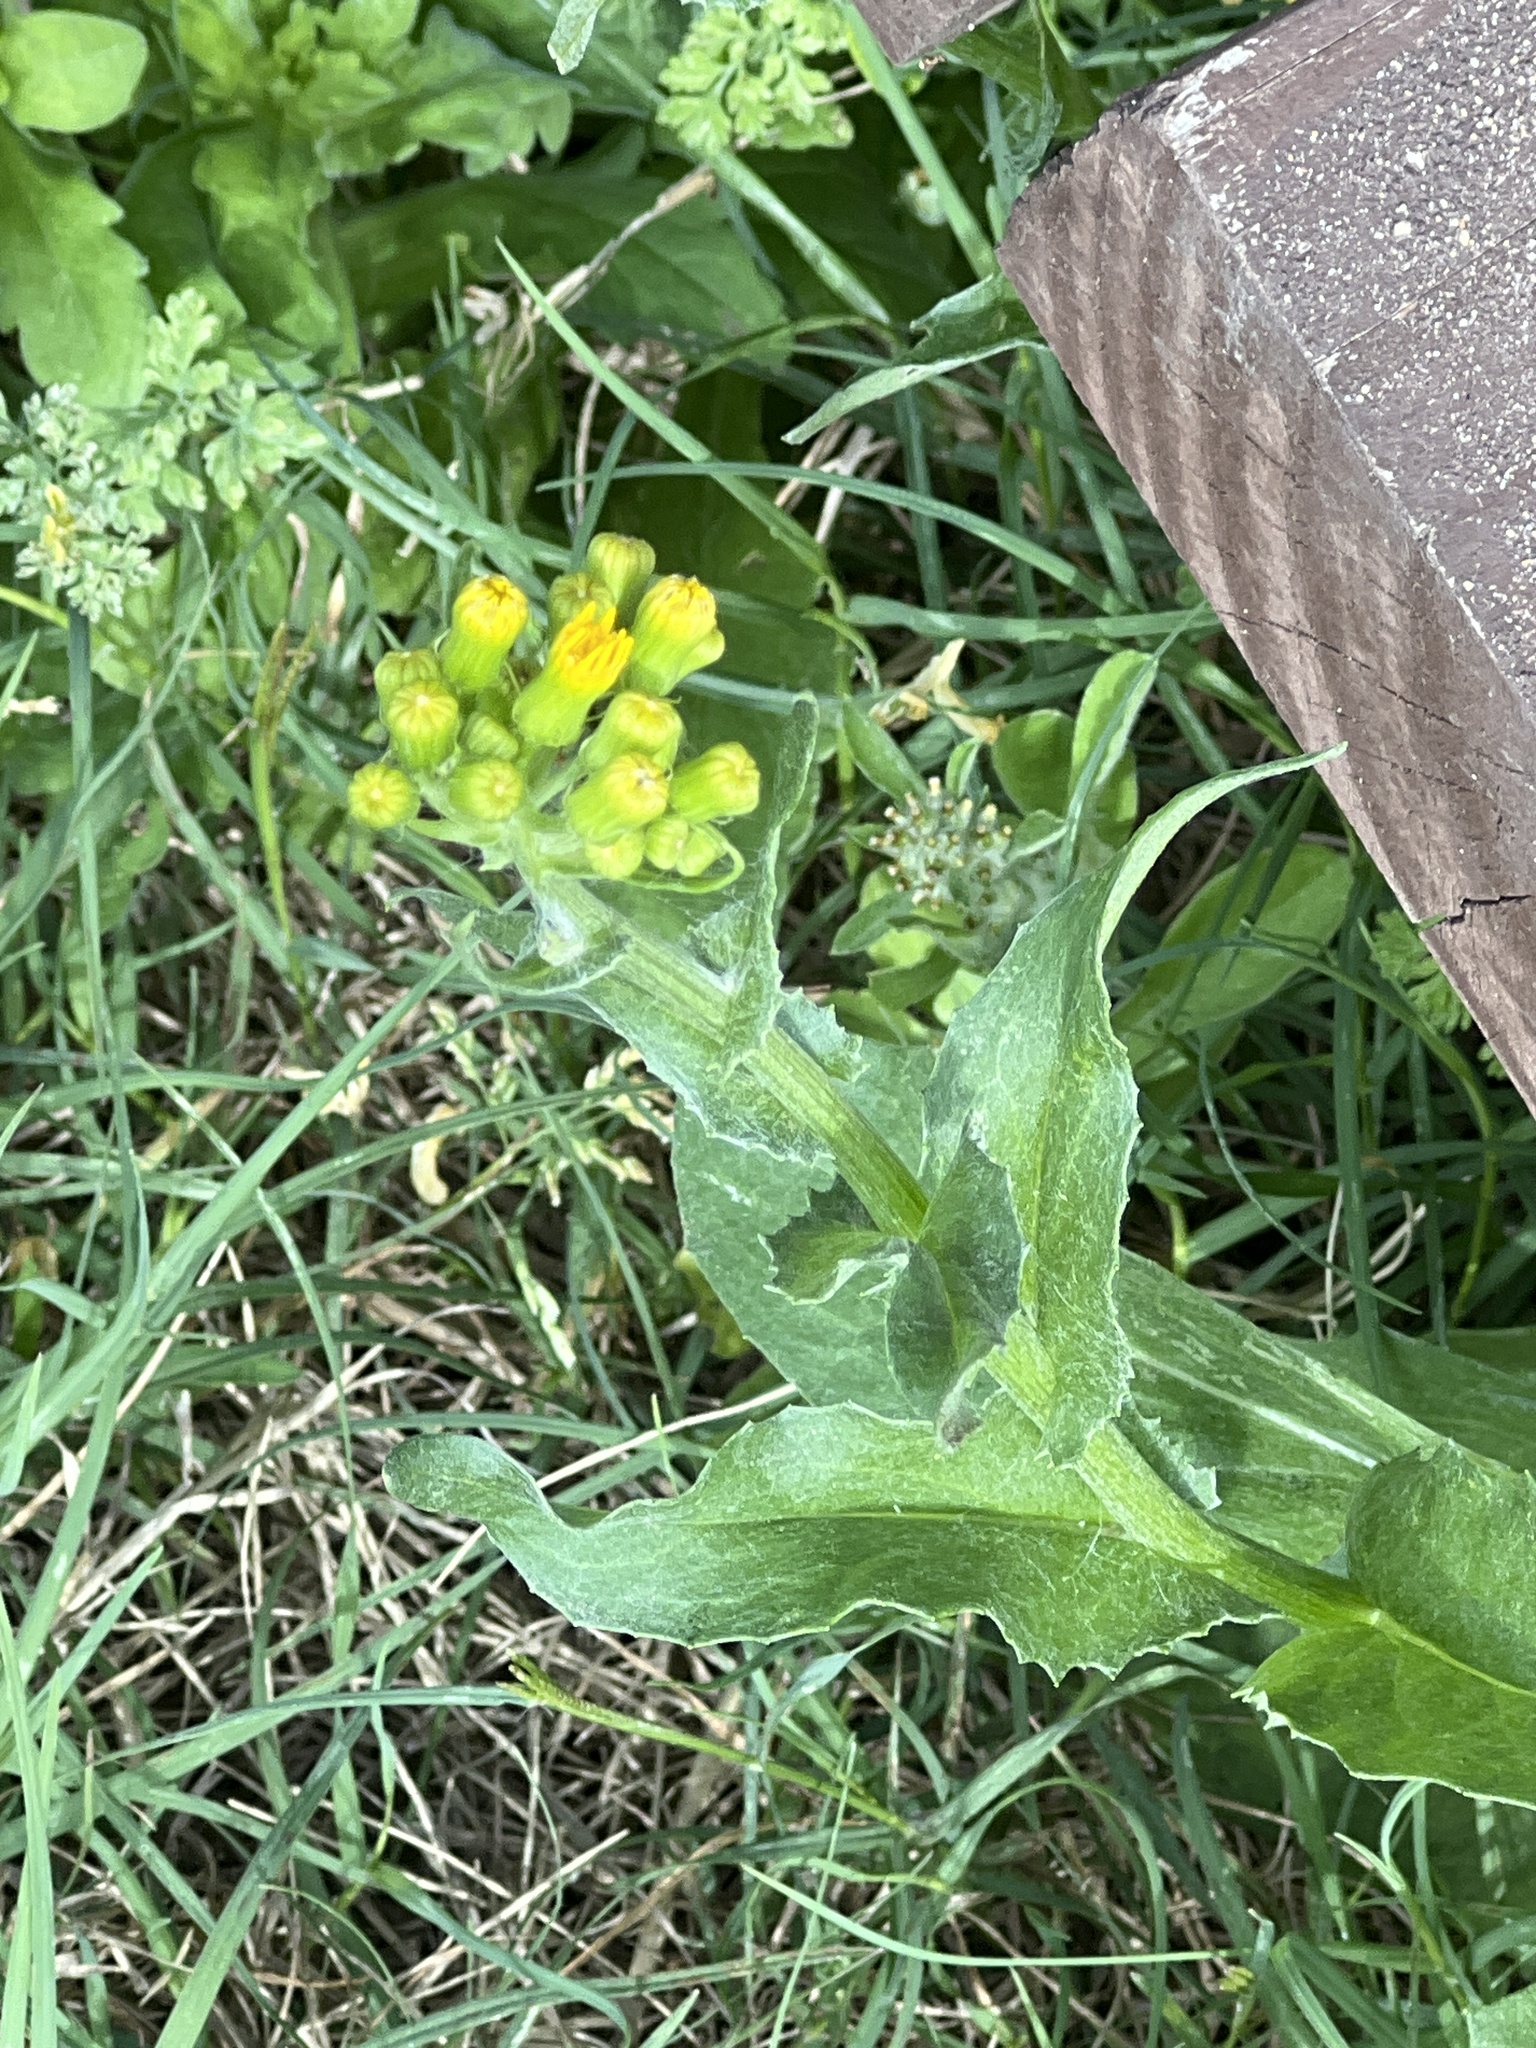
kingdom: Plantae
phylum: Tracheophyta
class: Magnoliopsida
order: Asterales
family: Asteraceae
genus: Senecio
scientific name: Senecio ampullaceus
